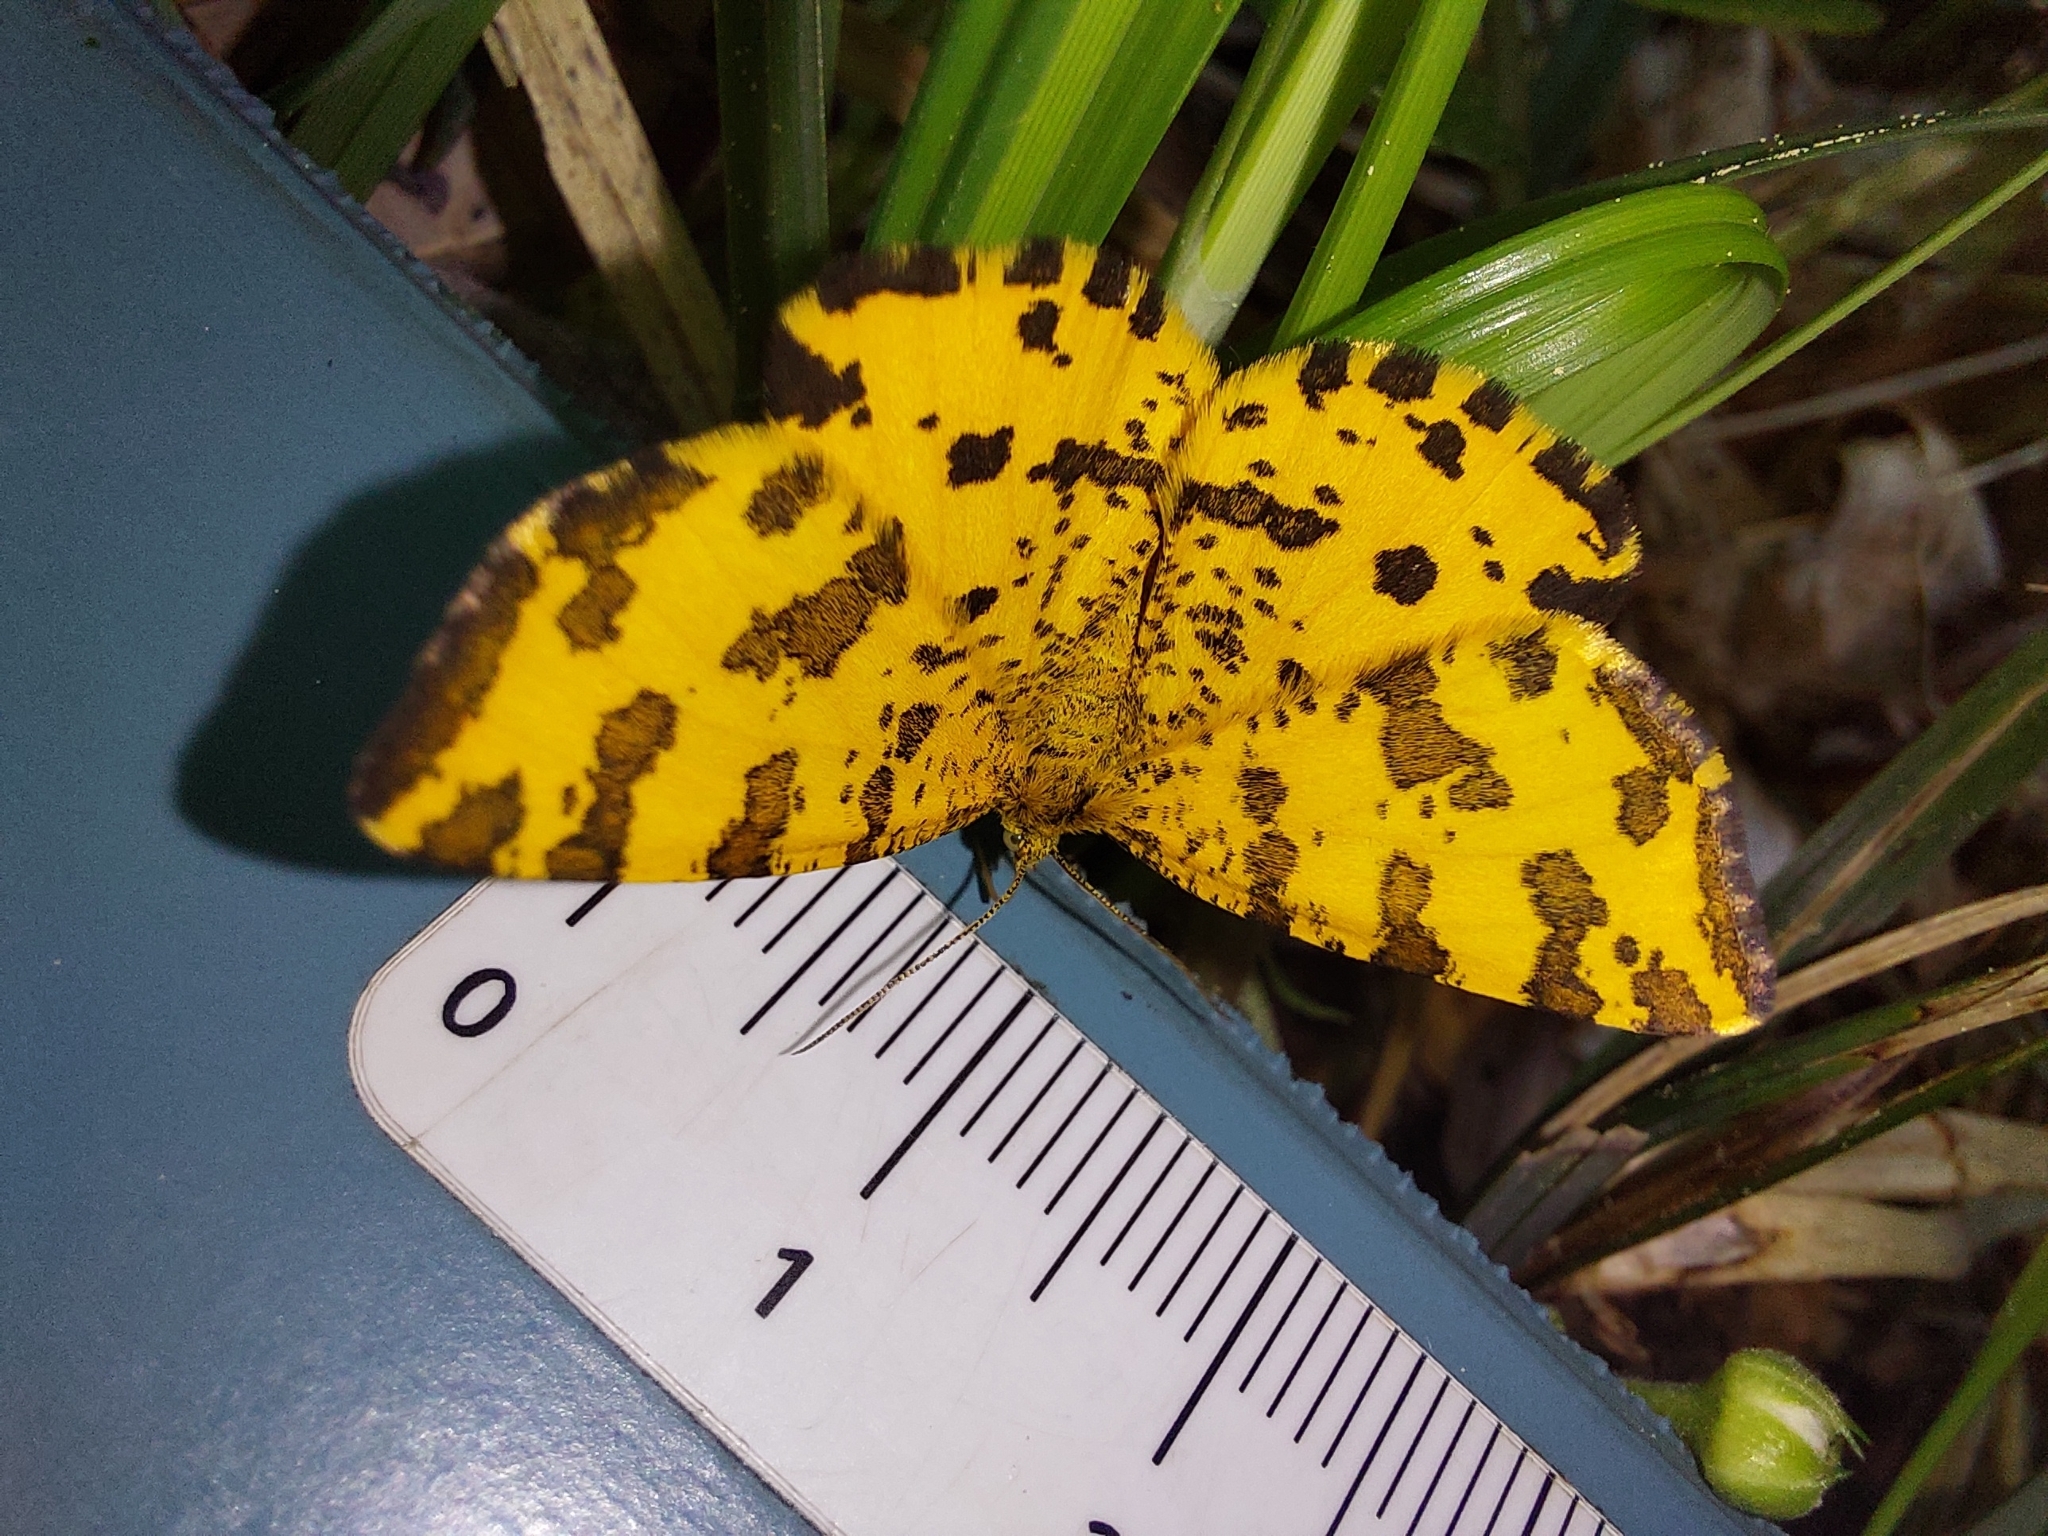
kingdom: Animalia
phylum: Arthropoda
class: Insecta
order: Lepidoptera
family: Geometridae
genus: Pseudopanthera
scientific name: Pseudopanthera macularia
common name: Speckled yellow
